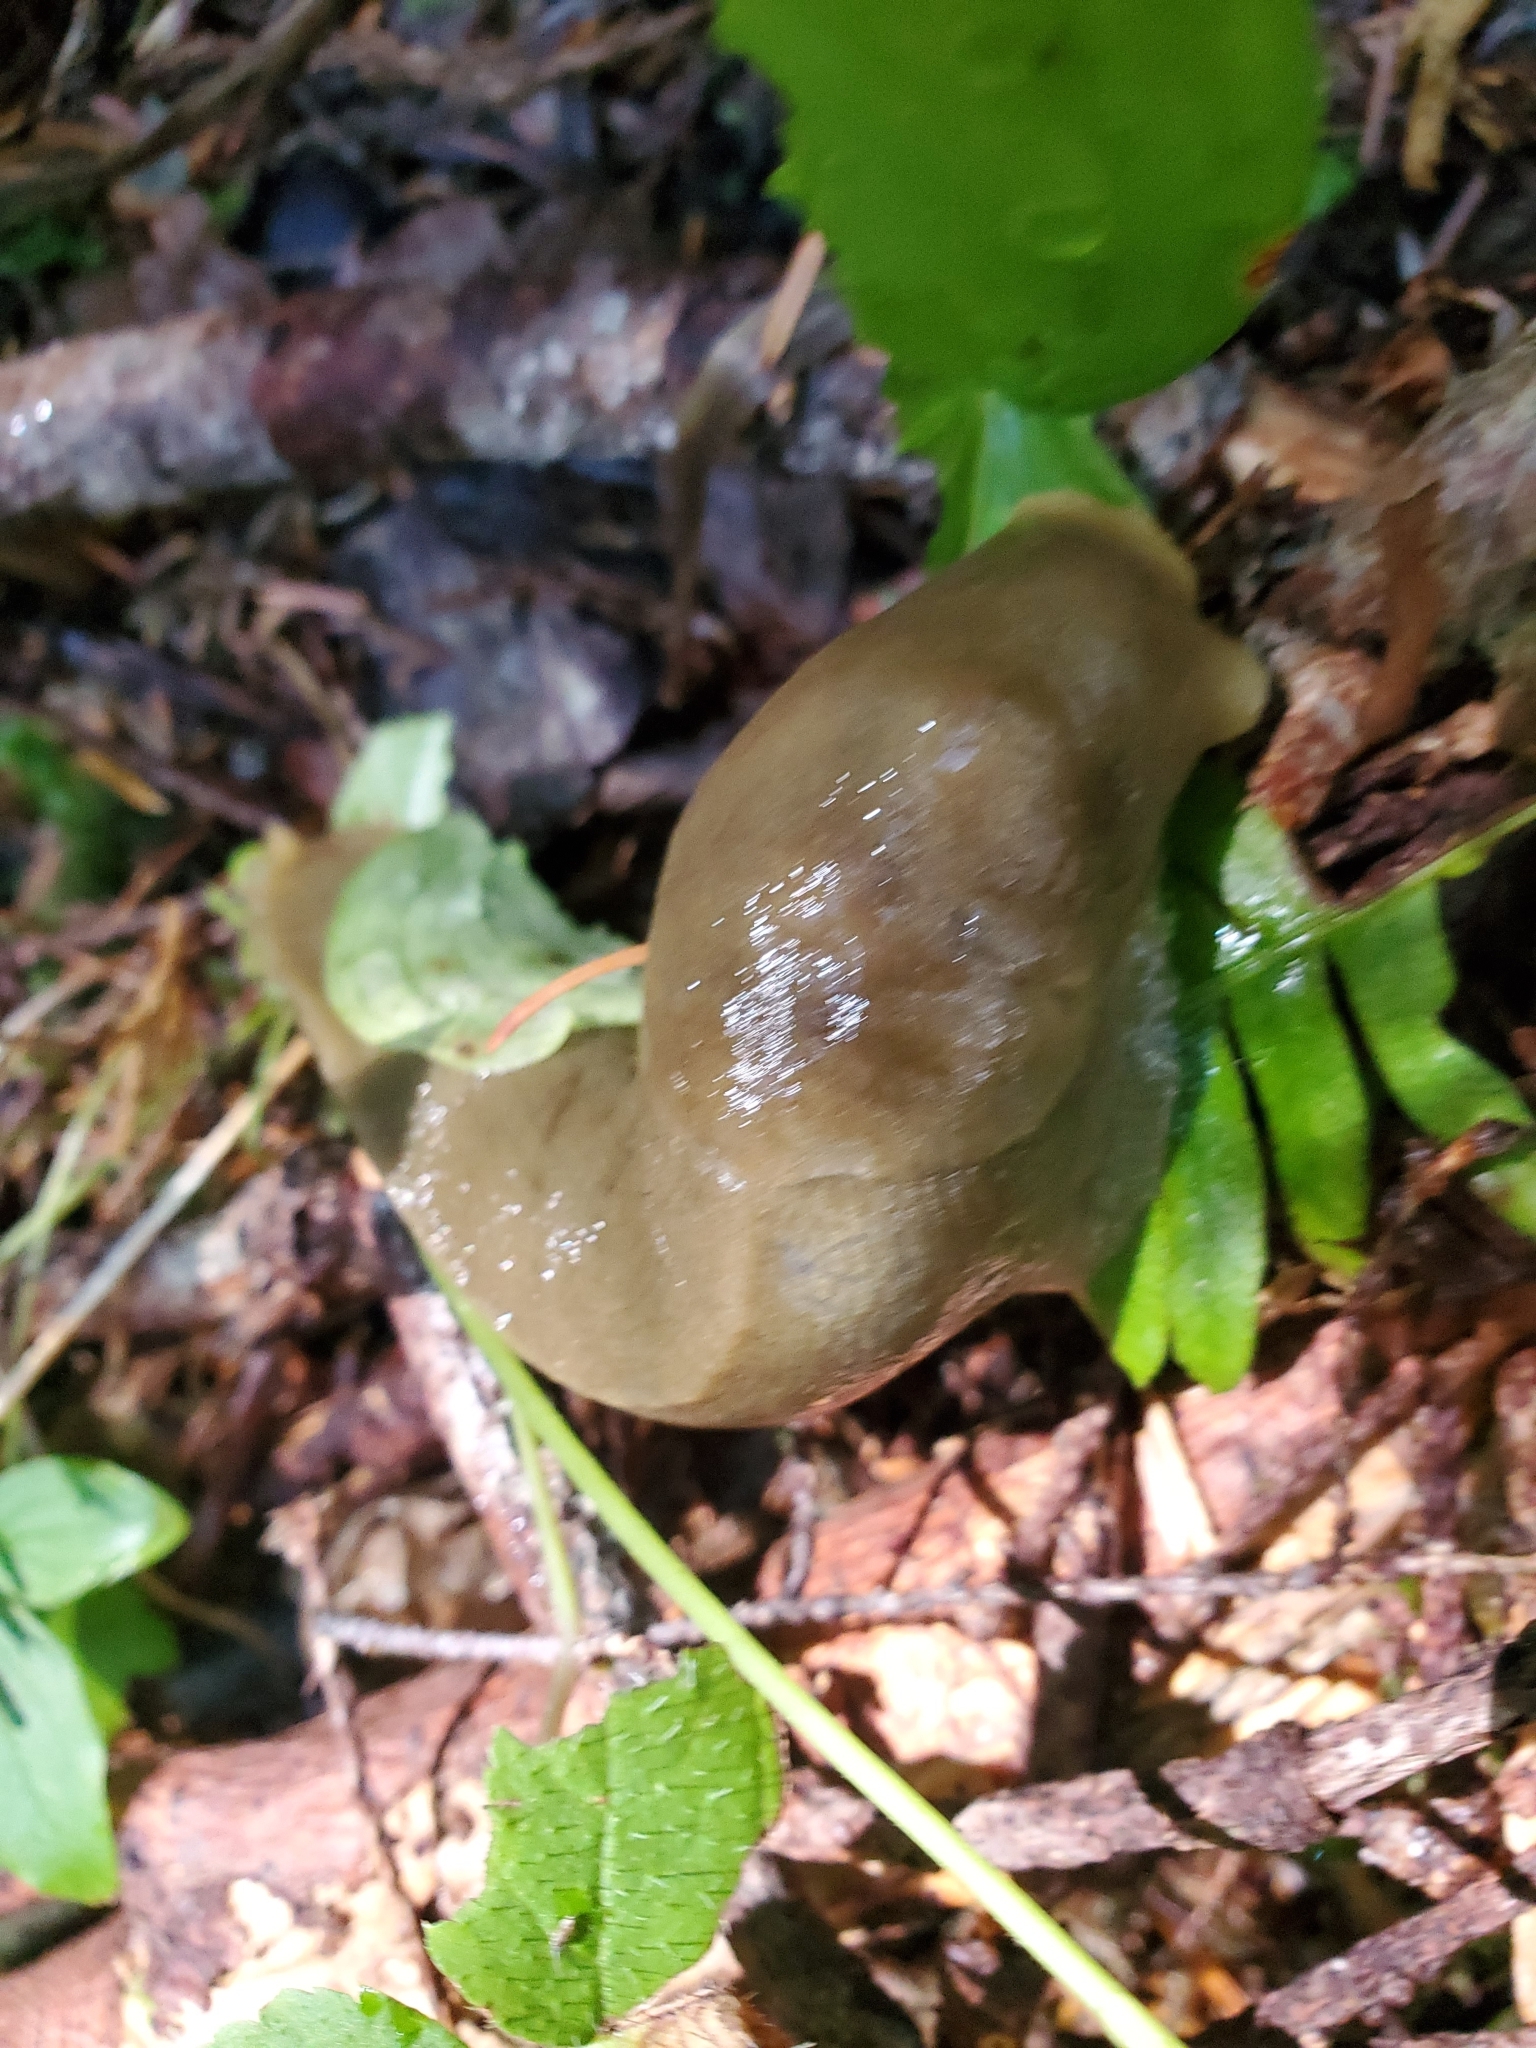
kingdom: Animalia
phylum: Mollusca
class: Gastropoda
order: Stylommatophora
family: Ariolimacidae
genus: Ariolimax
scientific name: Ariolimax columbianus
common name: Pacific banana slug
